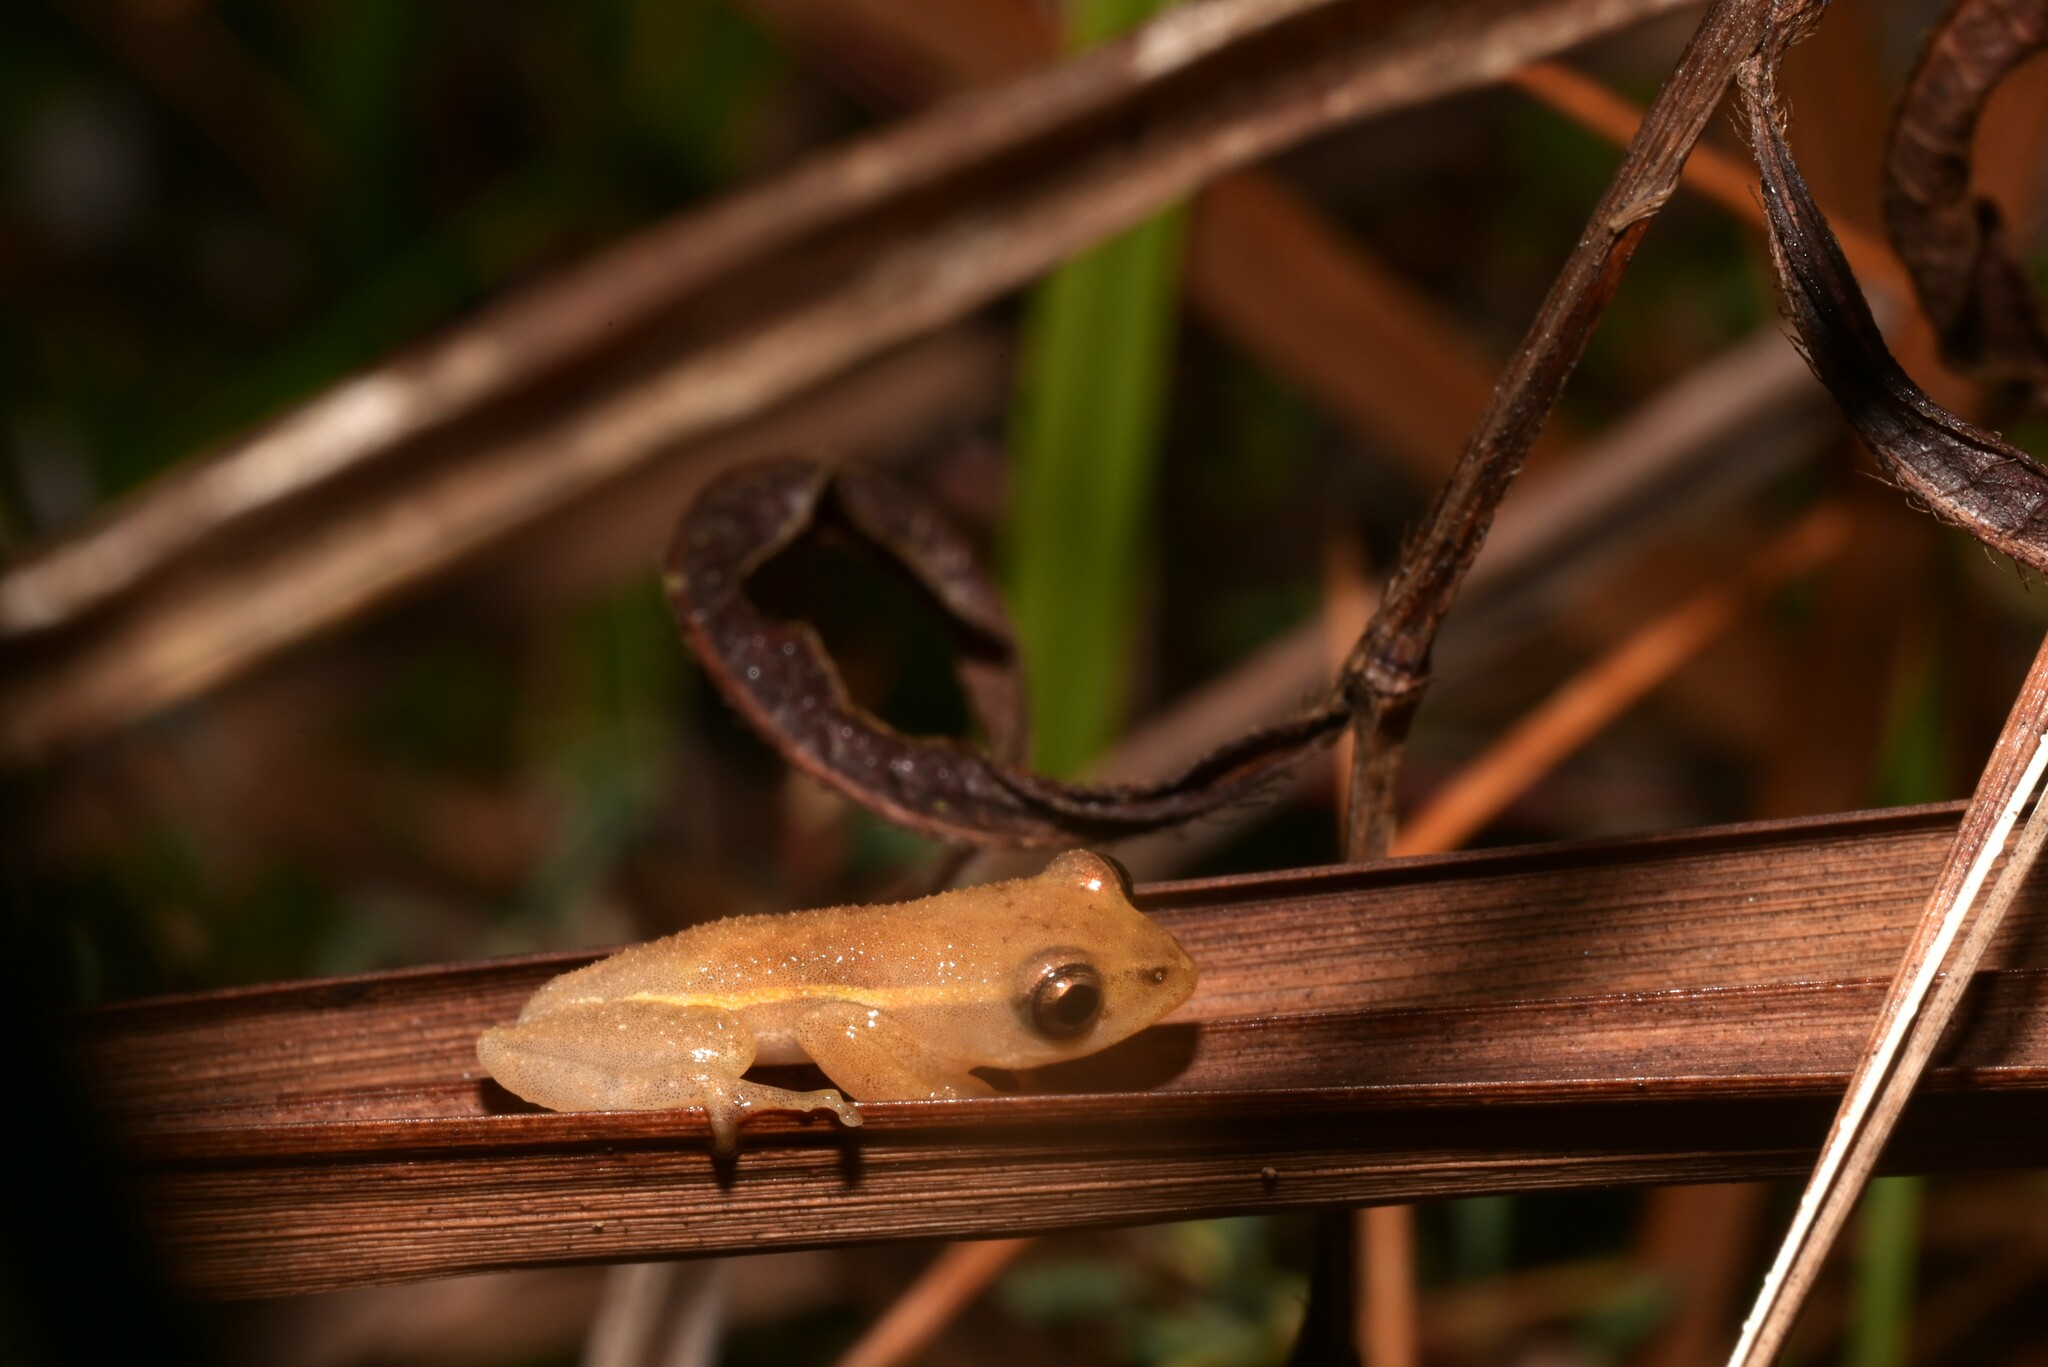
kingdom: Animalia
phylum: Chordata
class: Amphibia
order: Anura
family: Hyperoliidae
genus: Hyperolius
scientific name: Hyperolius minutissimus
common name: Tiny reed frog
